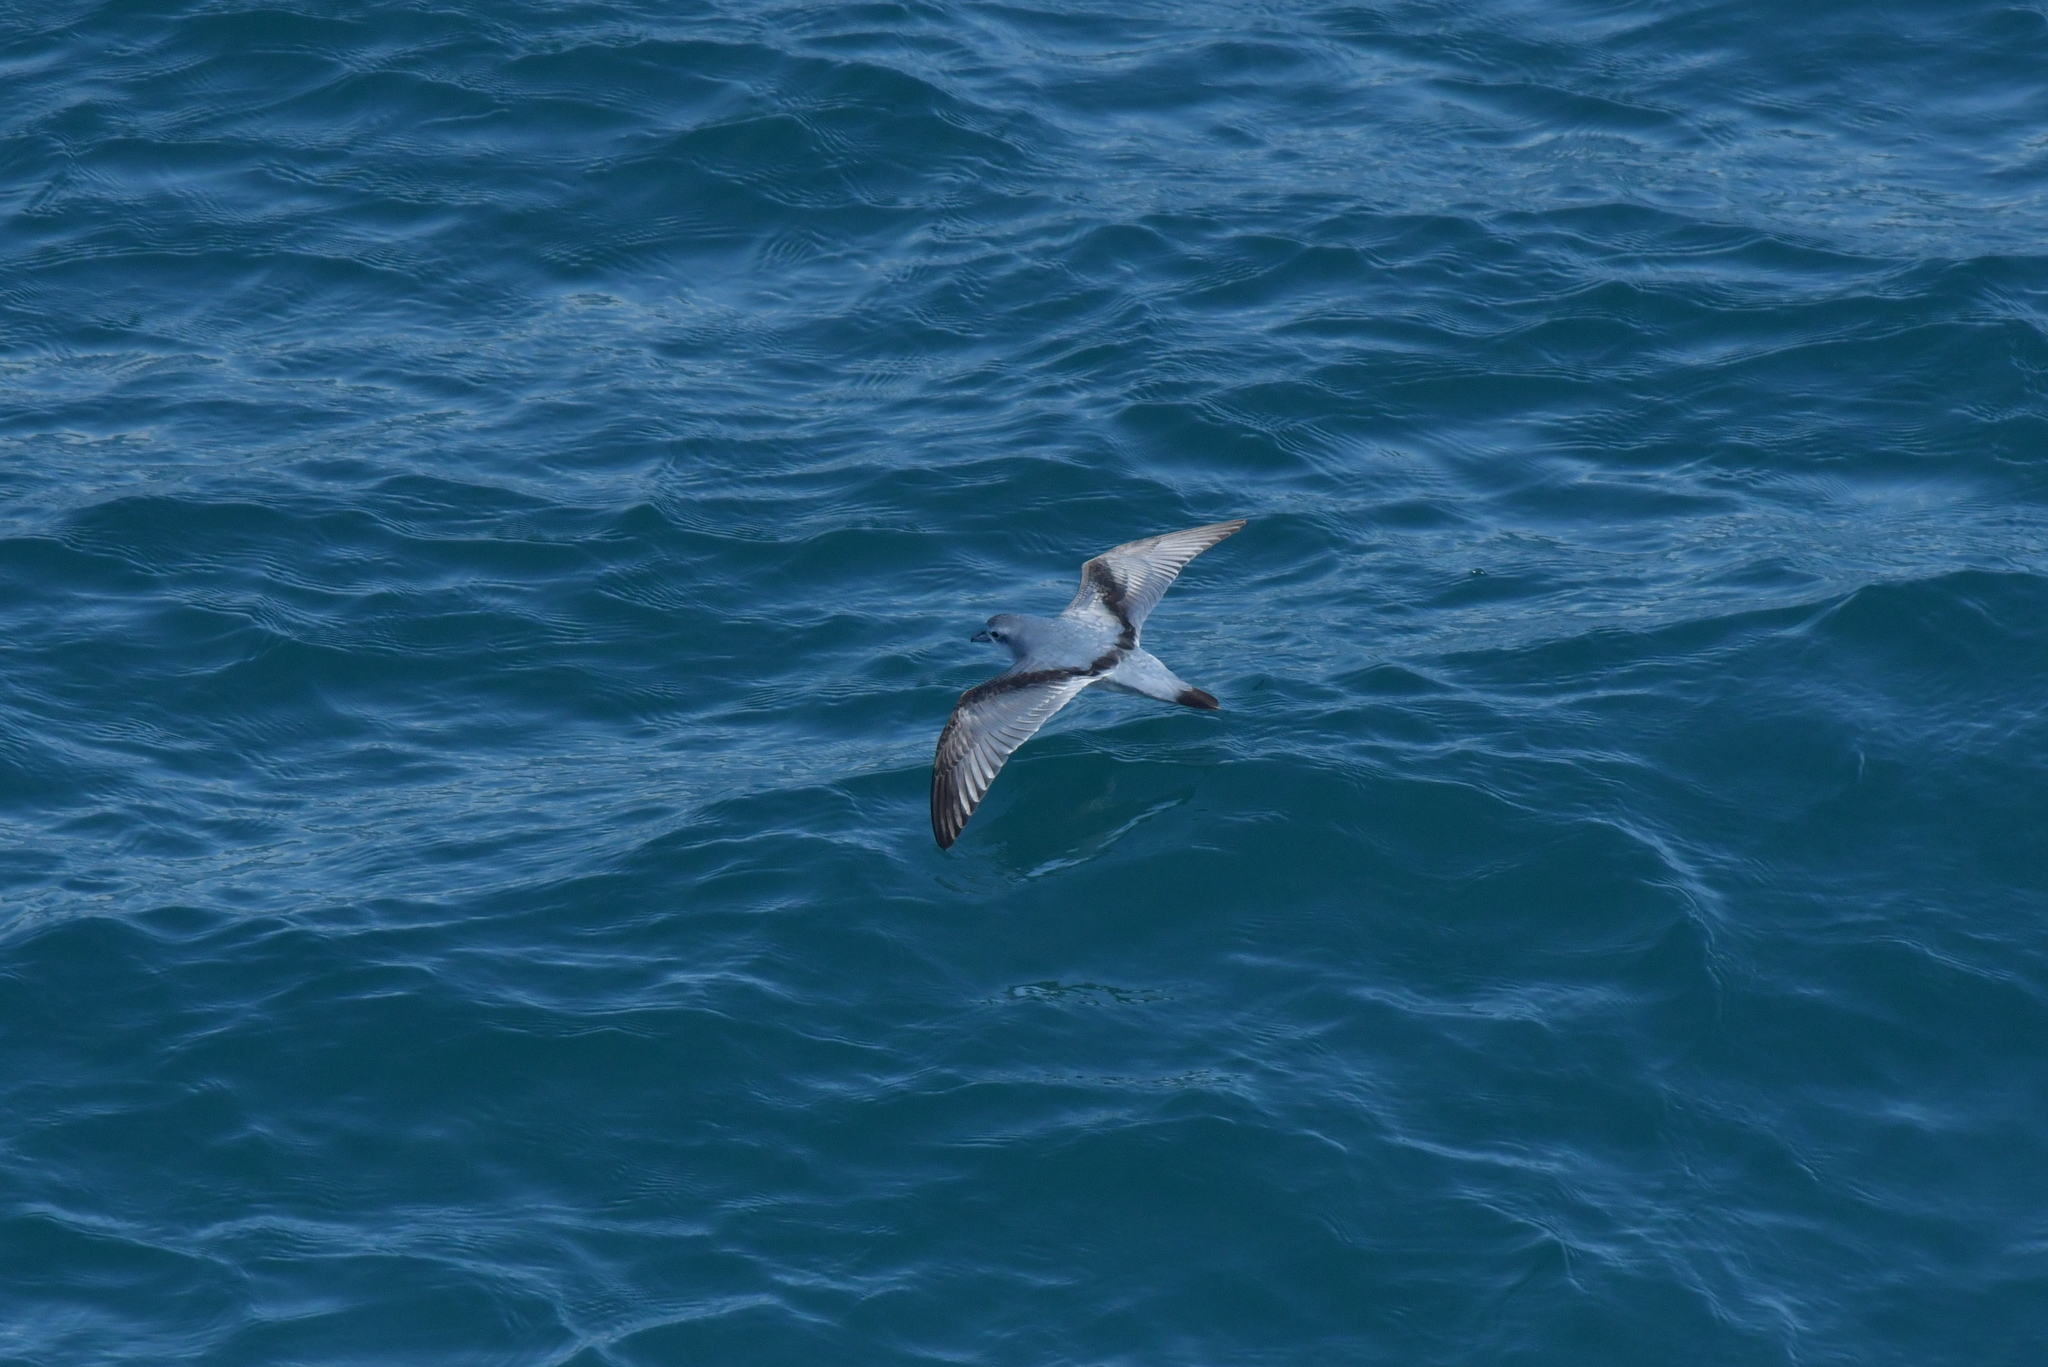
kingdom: Animalia
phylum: Chordata
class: Aves
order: Procellariiformes
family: Procellariidae
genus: Pachyptila
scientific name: Pachyptila turtur
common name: Fairy prion
